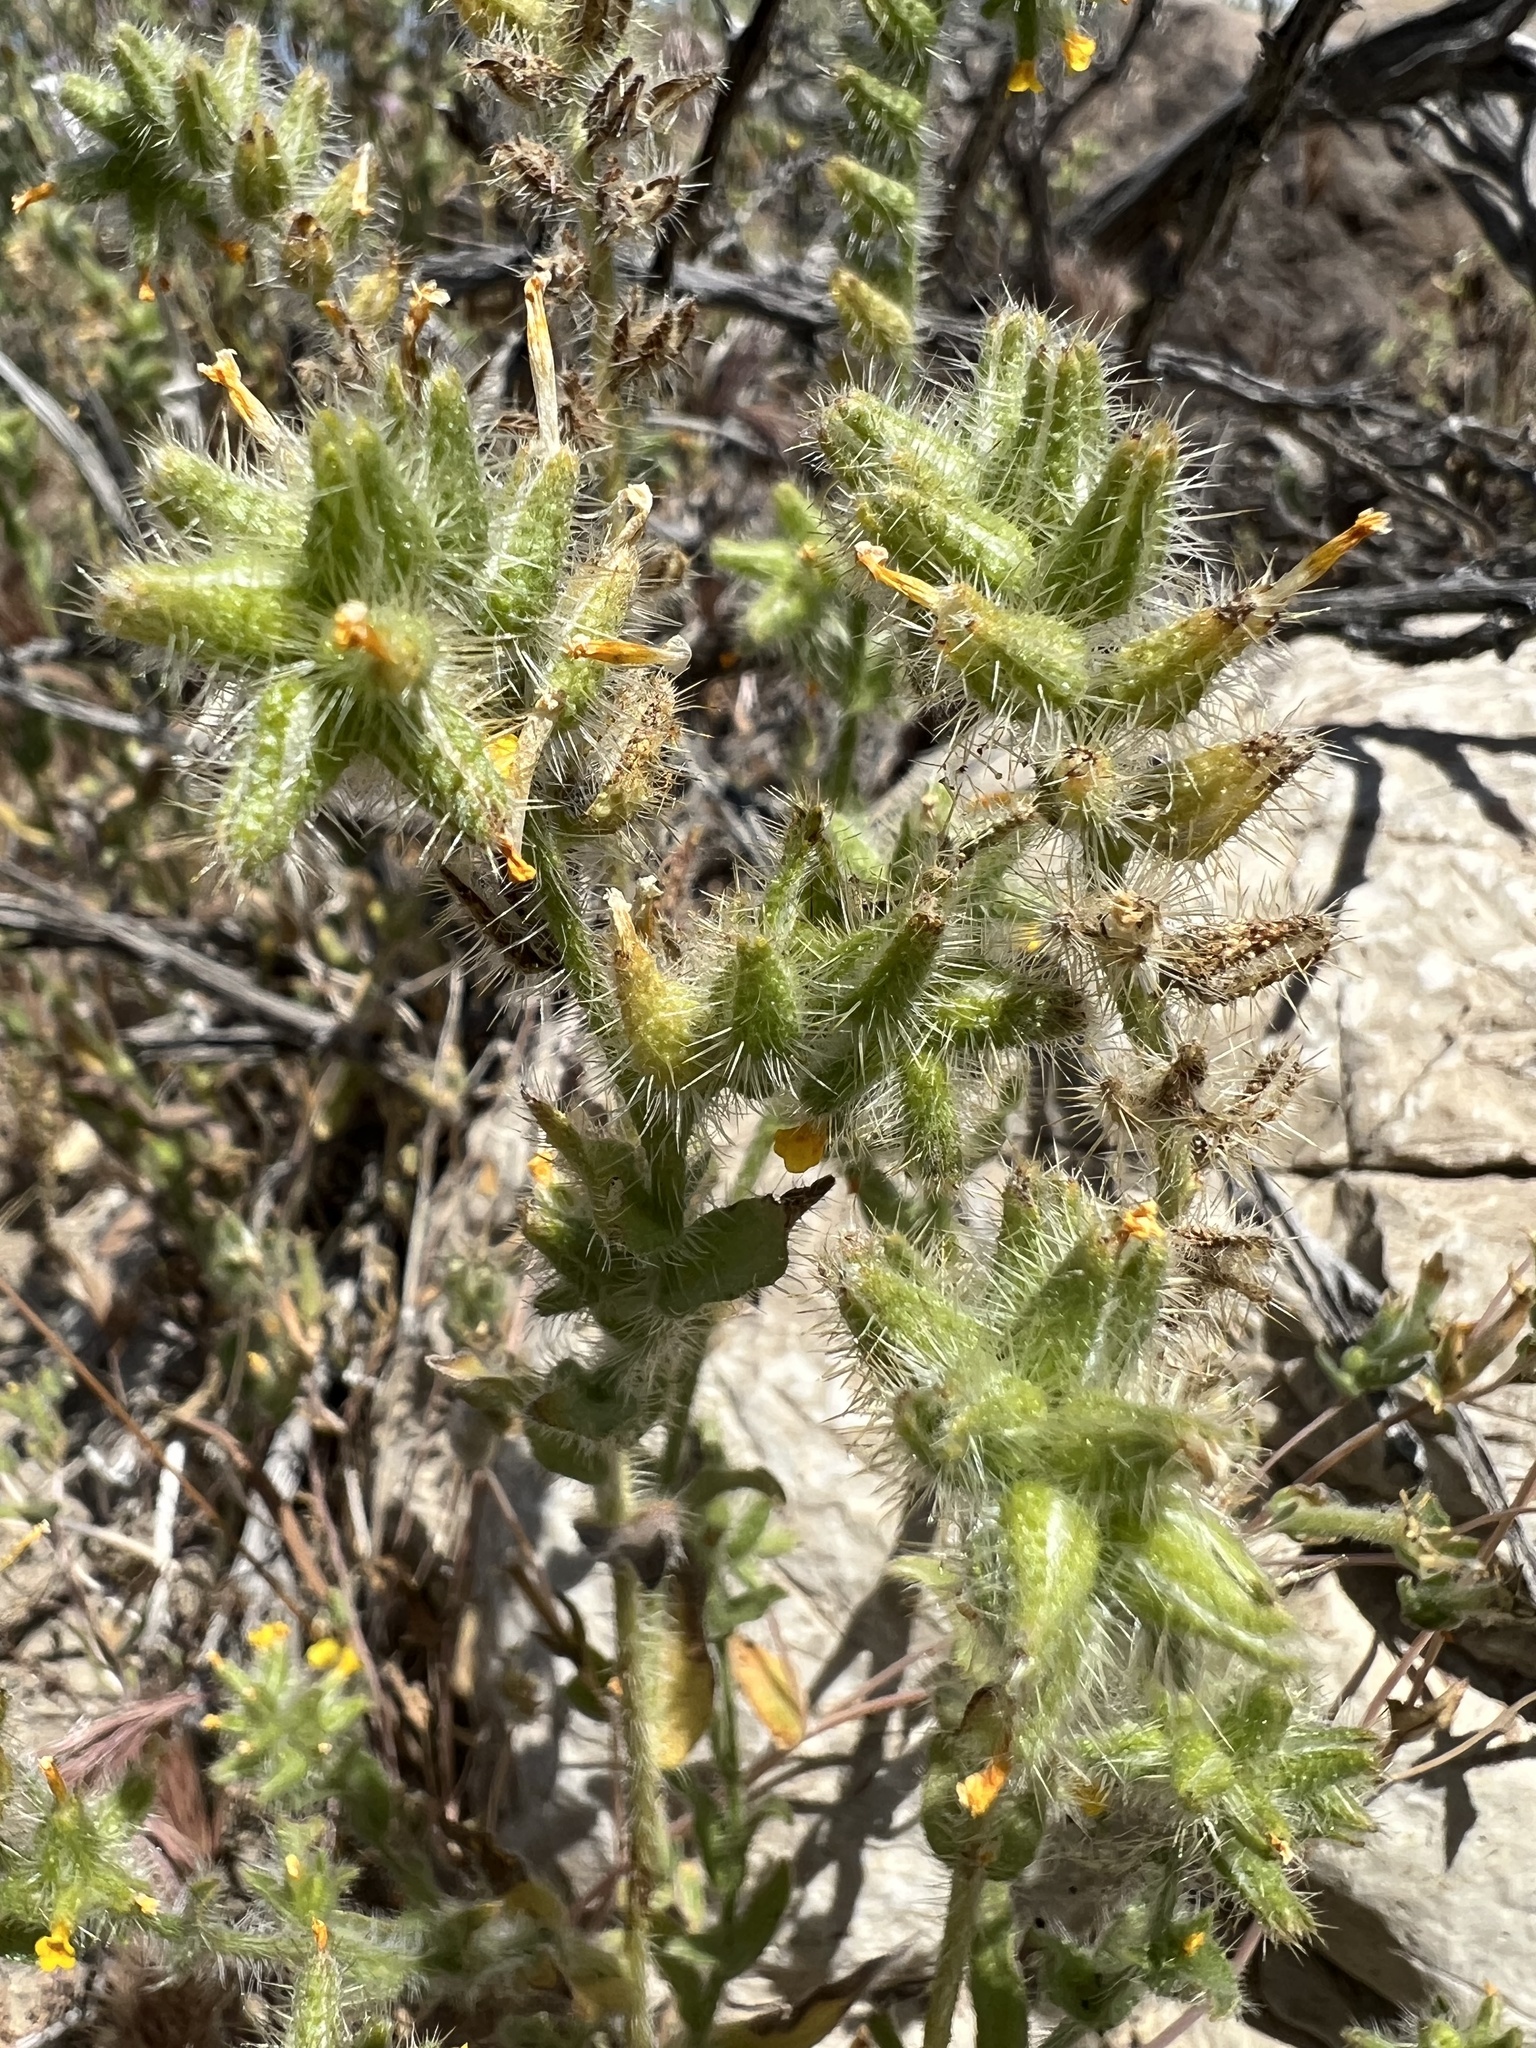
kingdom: Plantae
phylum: Tracheophyta
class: Magnoliopsida
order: Boraginales
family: Boraginaceae
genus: Amsinckia
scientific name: Amsinckia tessellata
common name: Tessellate fiddleneck
